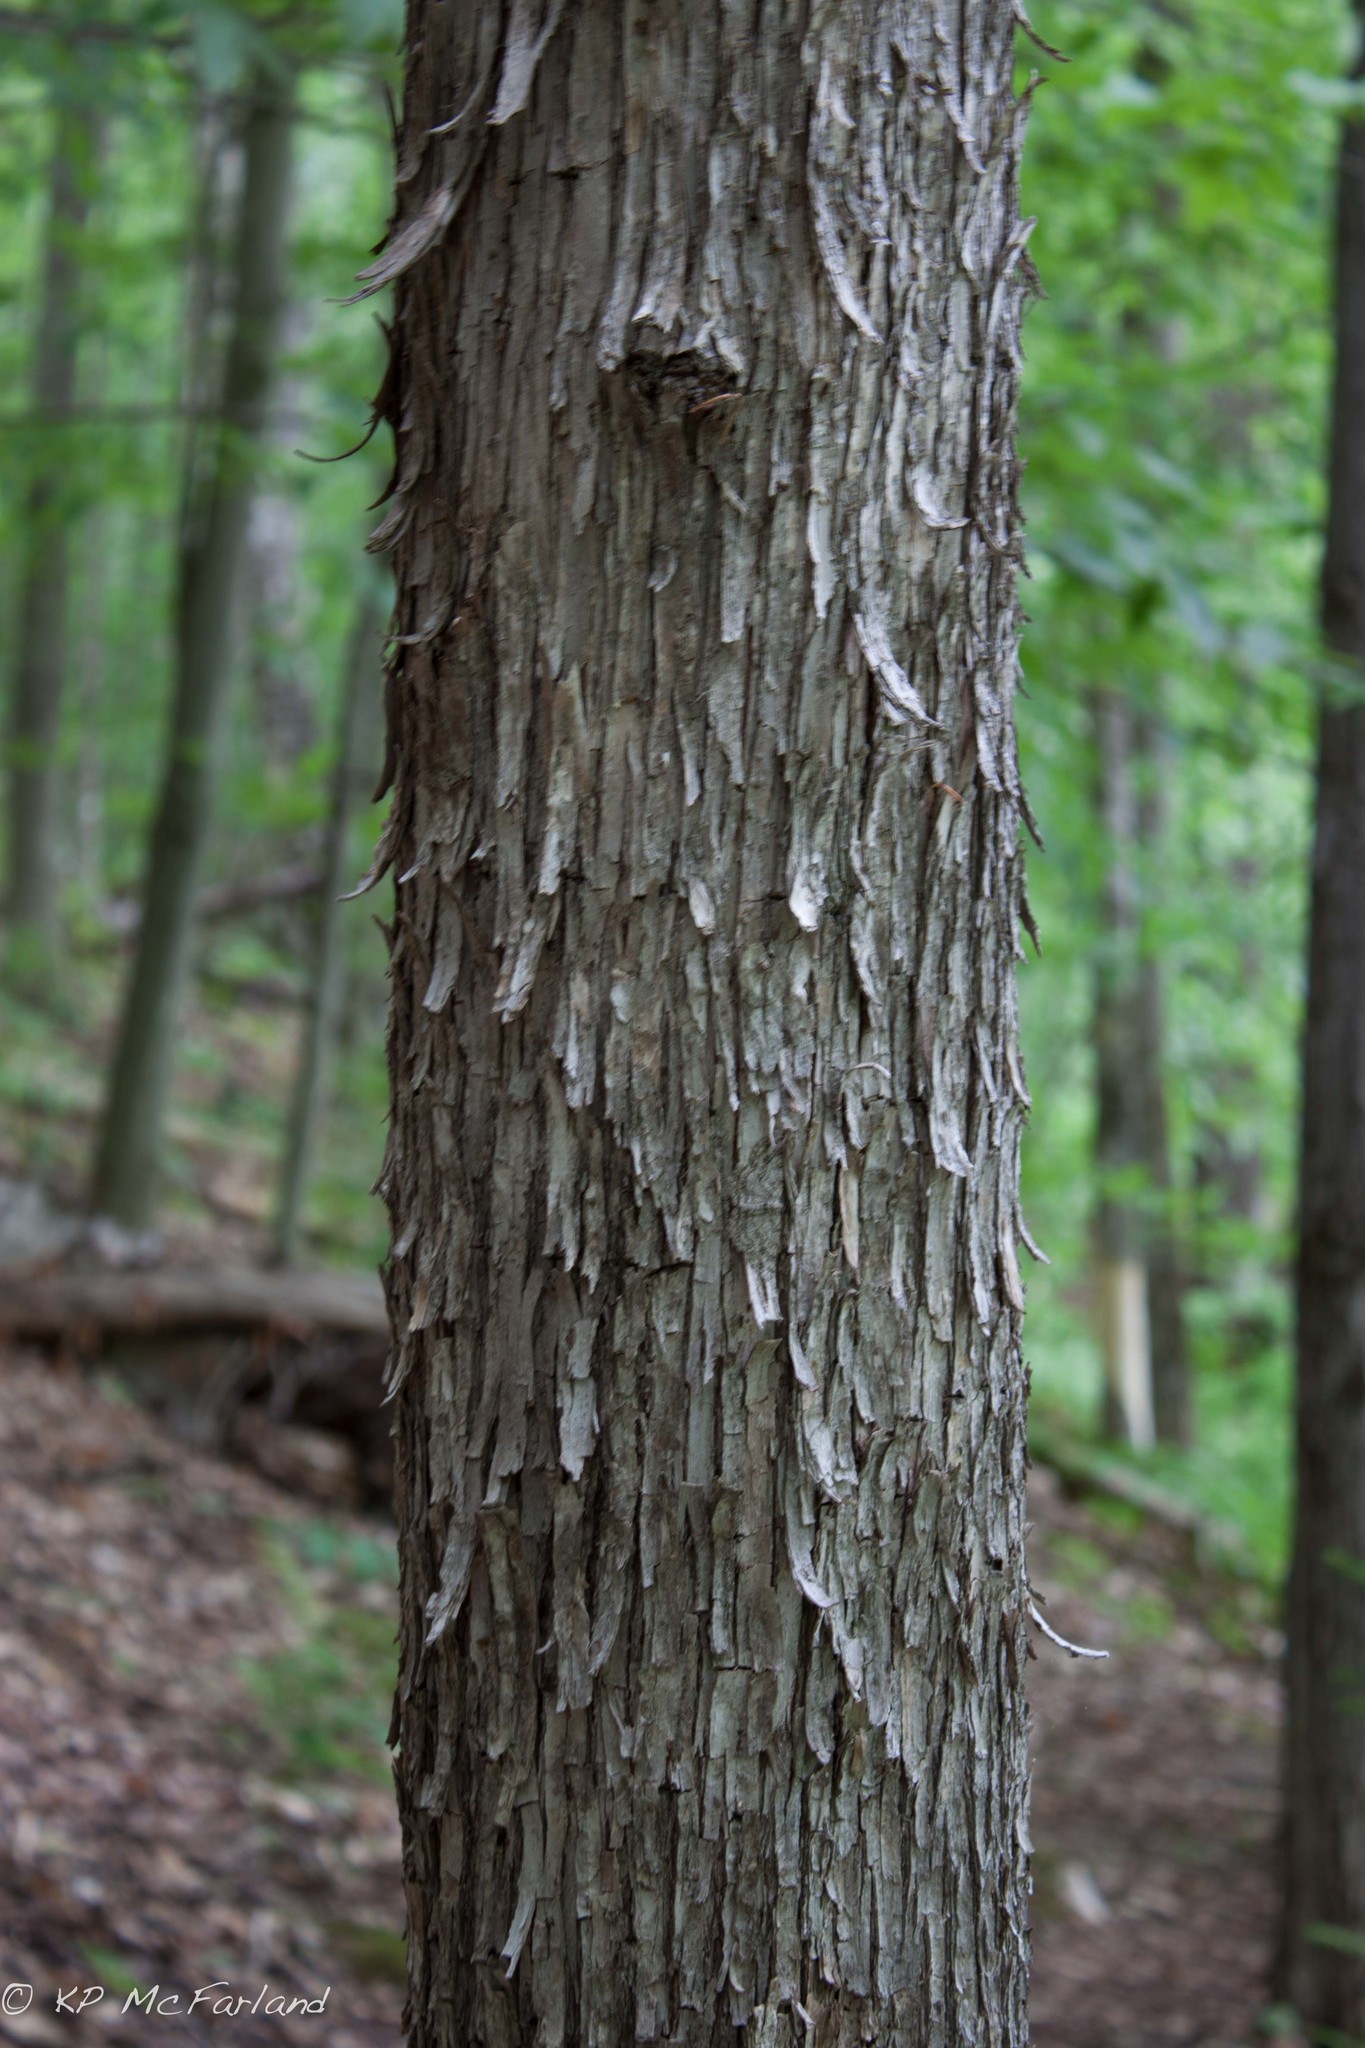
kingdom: Plantae
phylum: Tracheophyta
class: Magnoliopsida
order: Fagales
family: Betulaceae
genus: Ostrya
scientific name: Ostrya virginiana
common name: Ironwood
